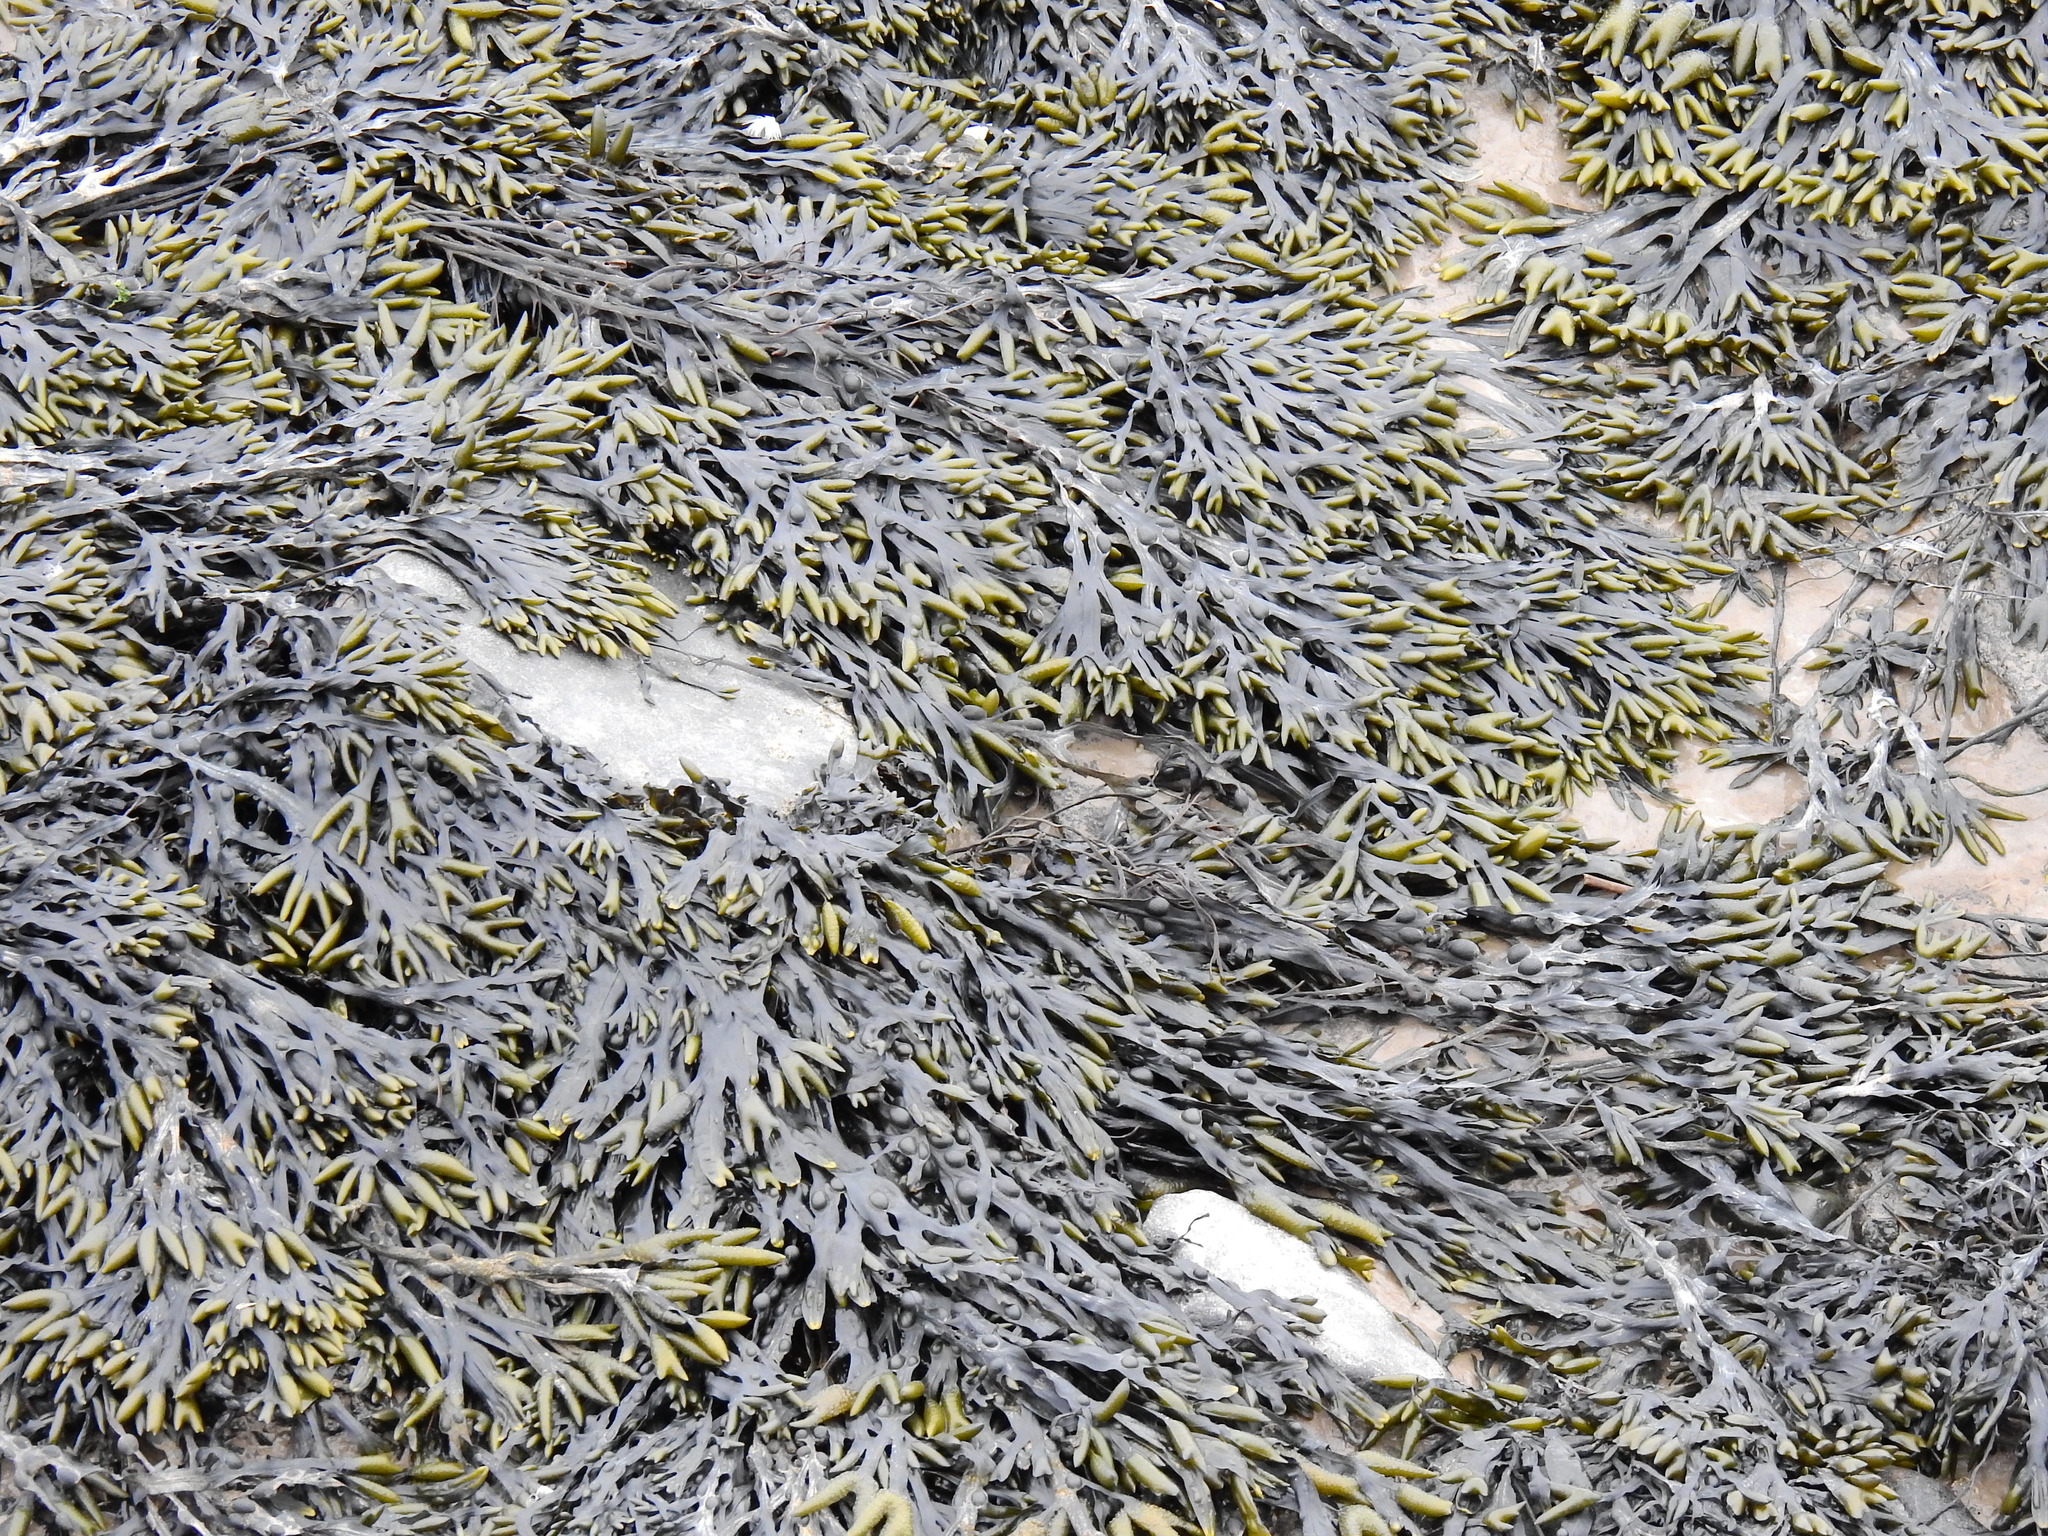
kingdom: Chromista
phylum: Ochrophyta
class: Phaeophyceae
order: Fucales
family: Fucaceae
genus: Fucus
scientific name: Fucus vesiculosus
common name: Bladder wrack
